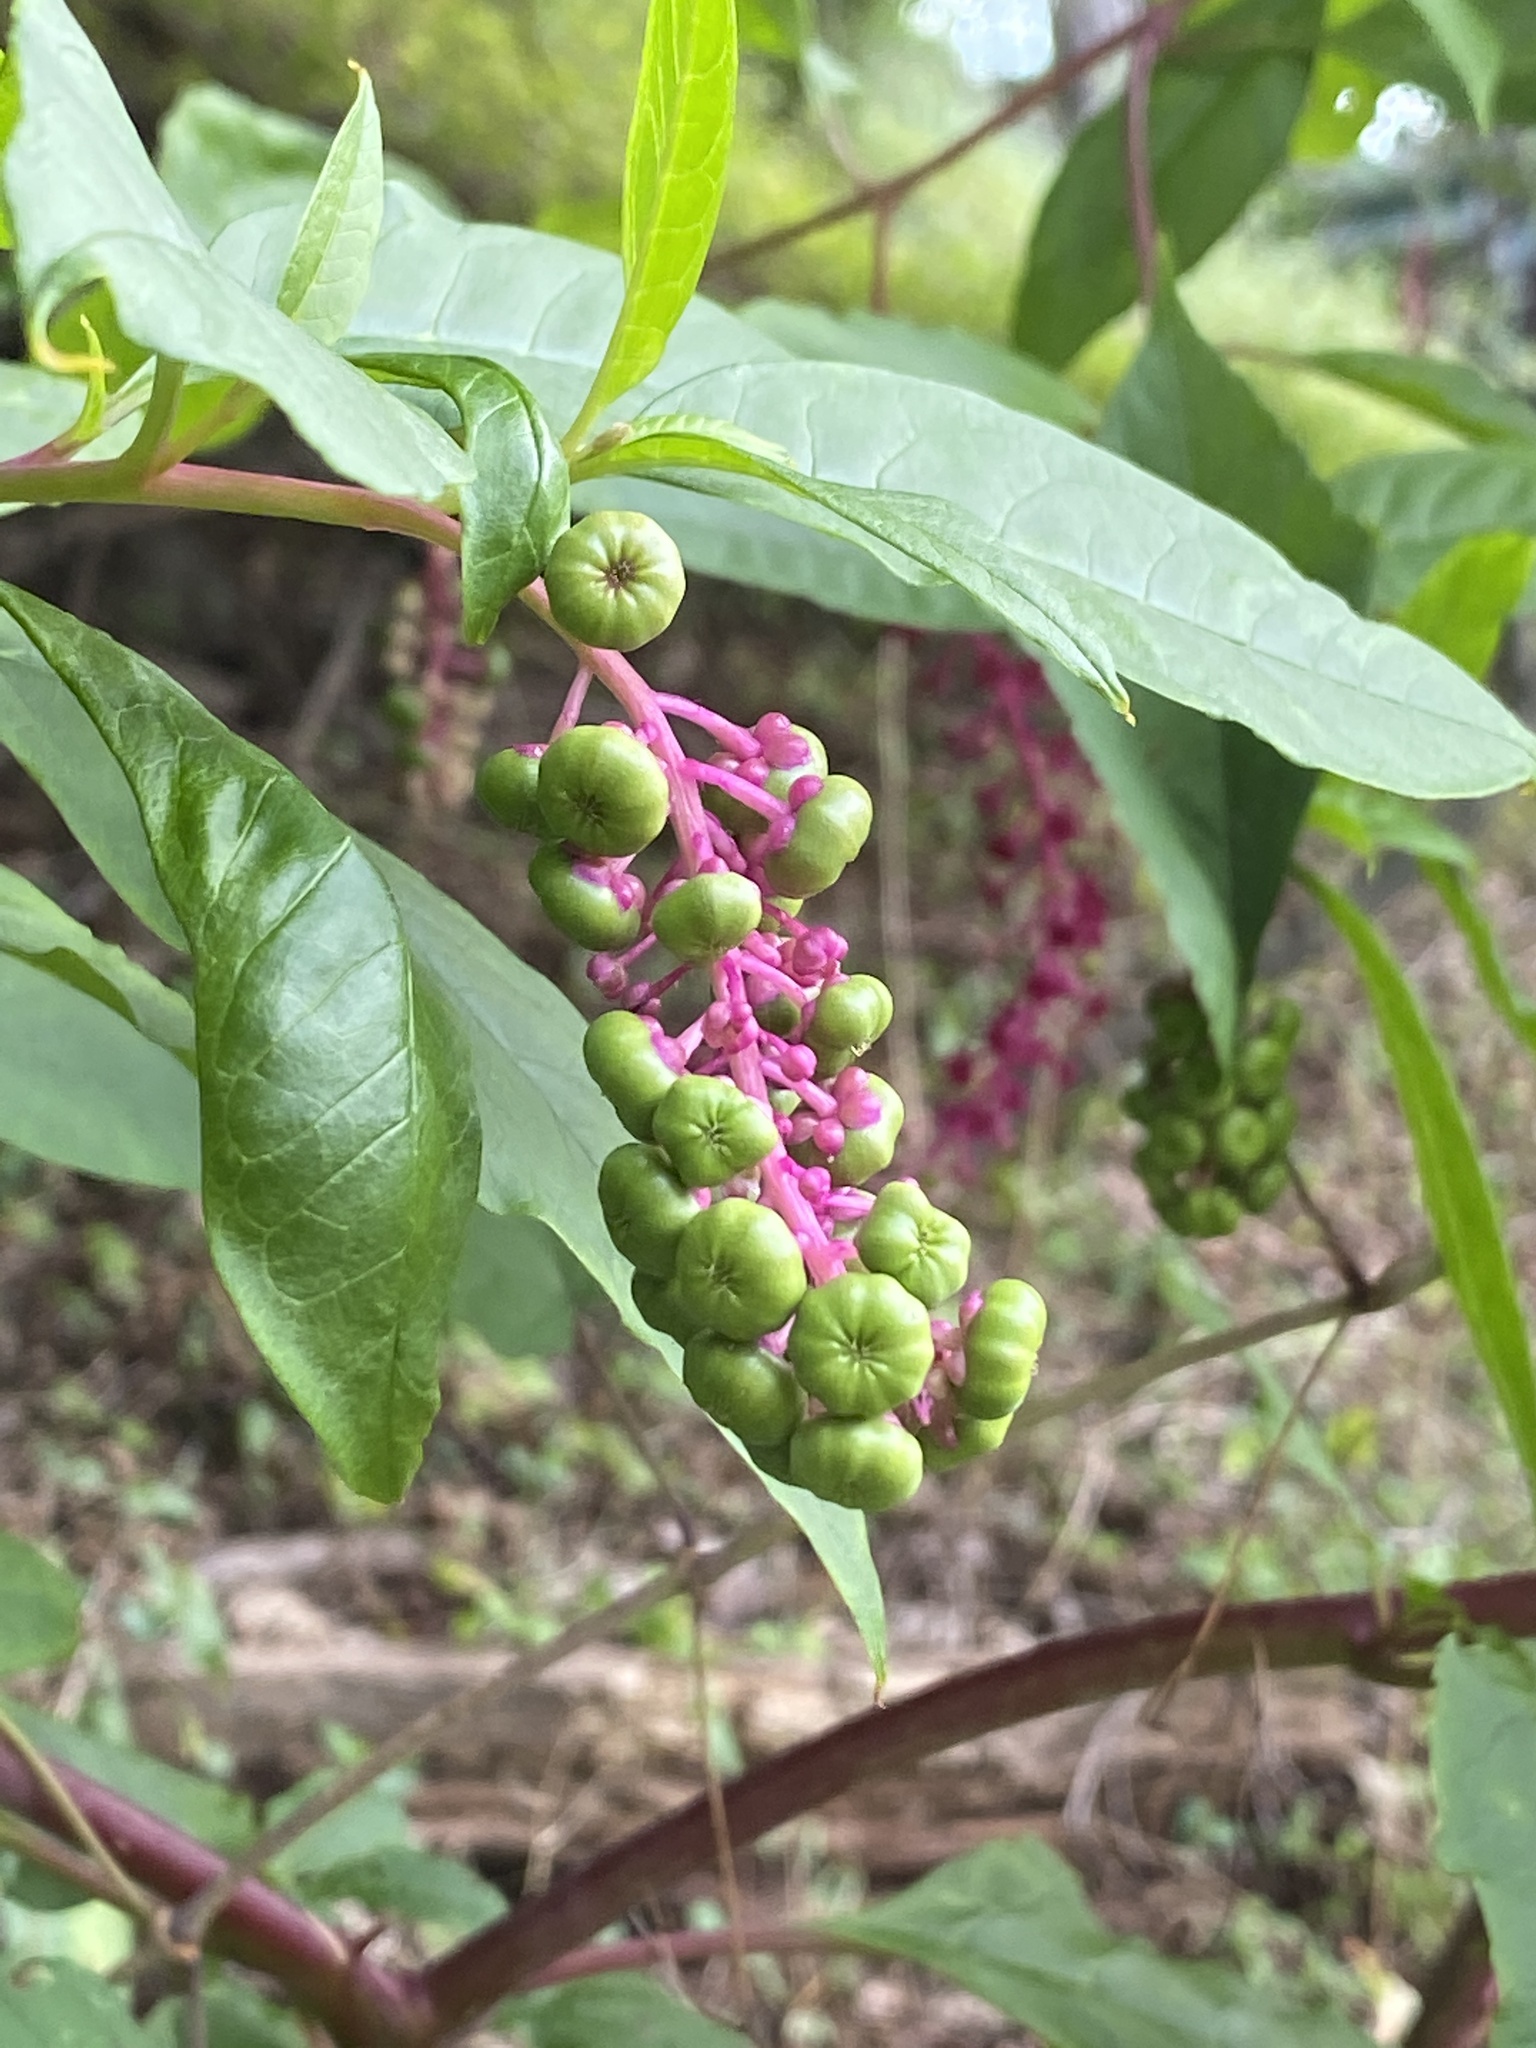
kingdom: Plantae
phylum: Tracheophyta
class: Magnoliopsida
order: Caryophyllales
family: Phytolaccaceae
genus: Phytolacca
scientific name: Phytolacca americana
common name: American pokeweed
